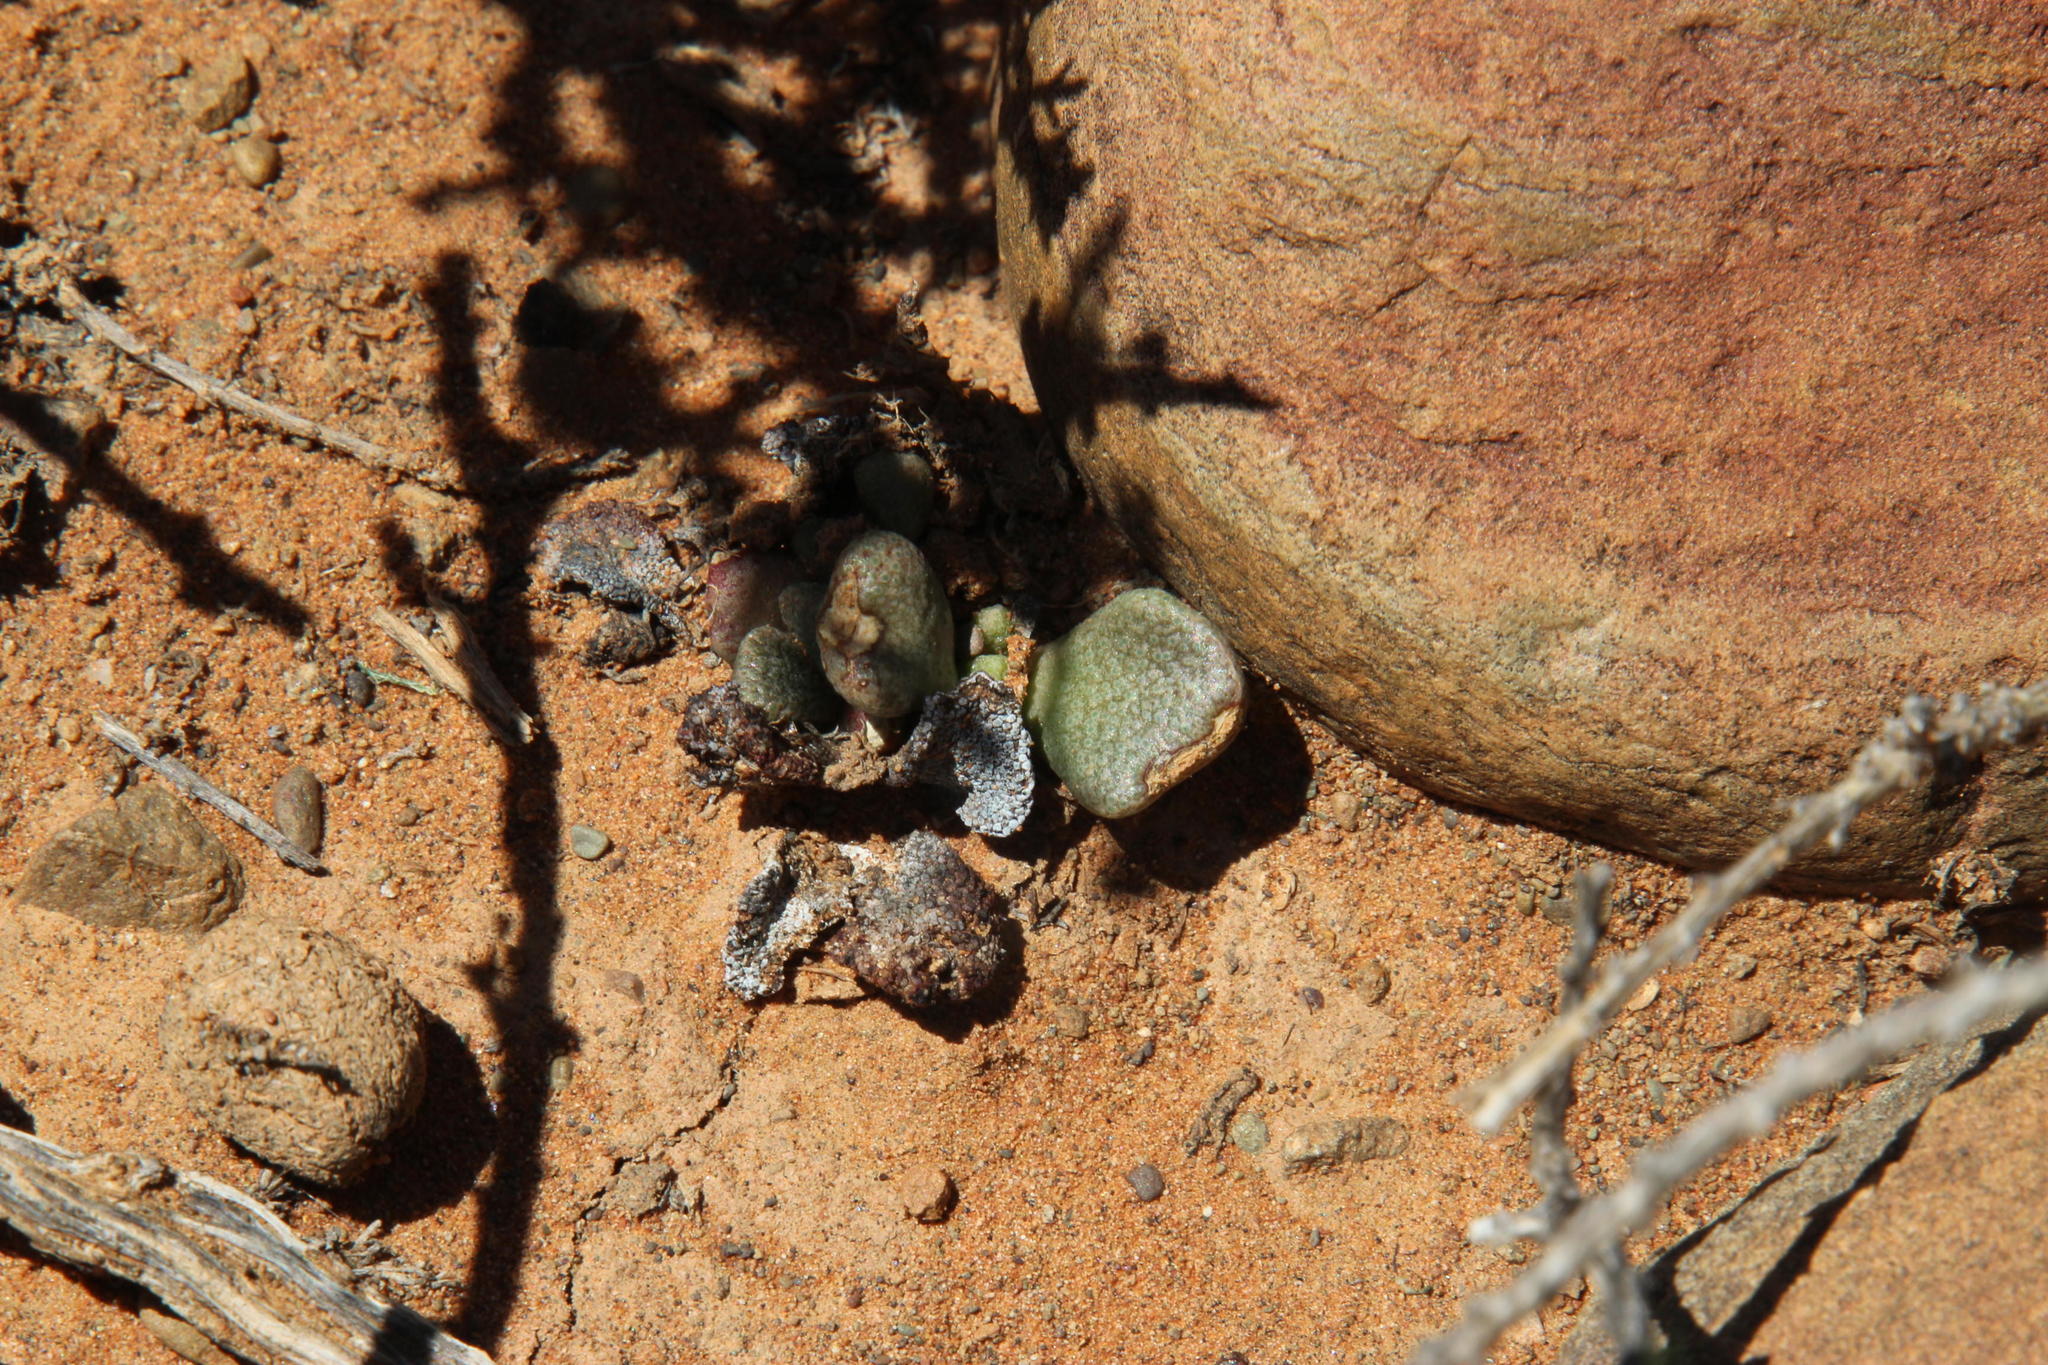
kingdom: Plantae
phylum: Tracheophyta
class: Magnoliopsida
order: Caryophyllales
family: Aizoaceae
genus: Aloinopsis
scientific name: Aloinopsis rosulata
